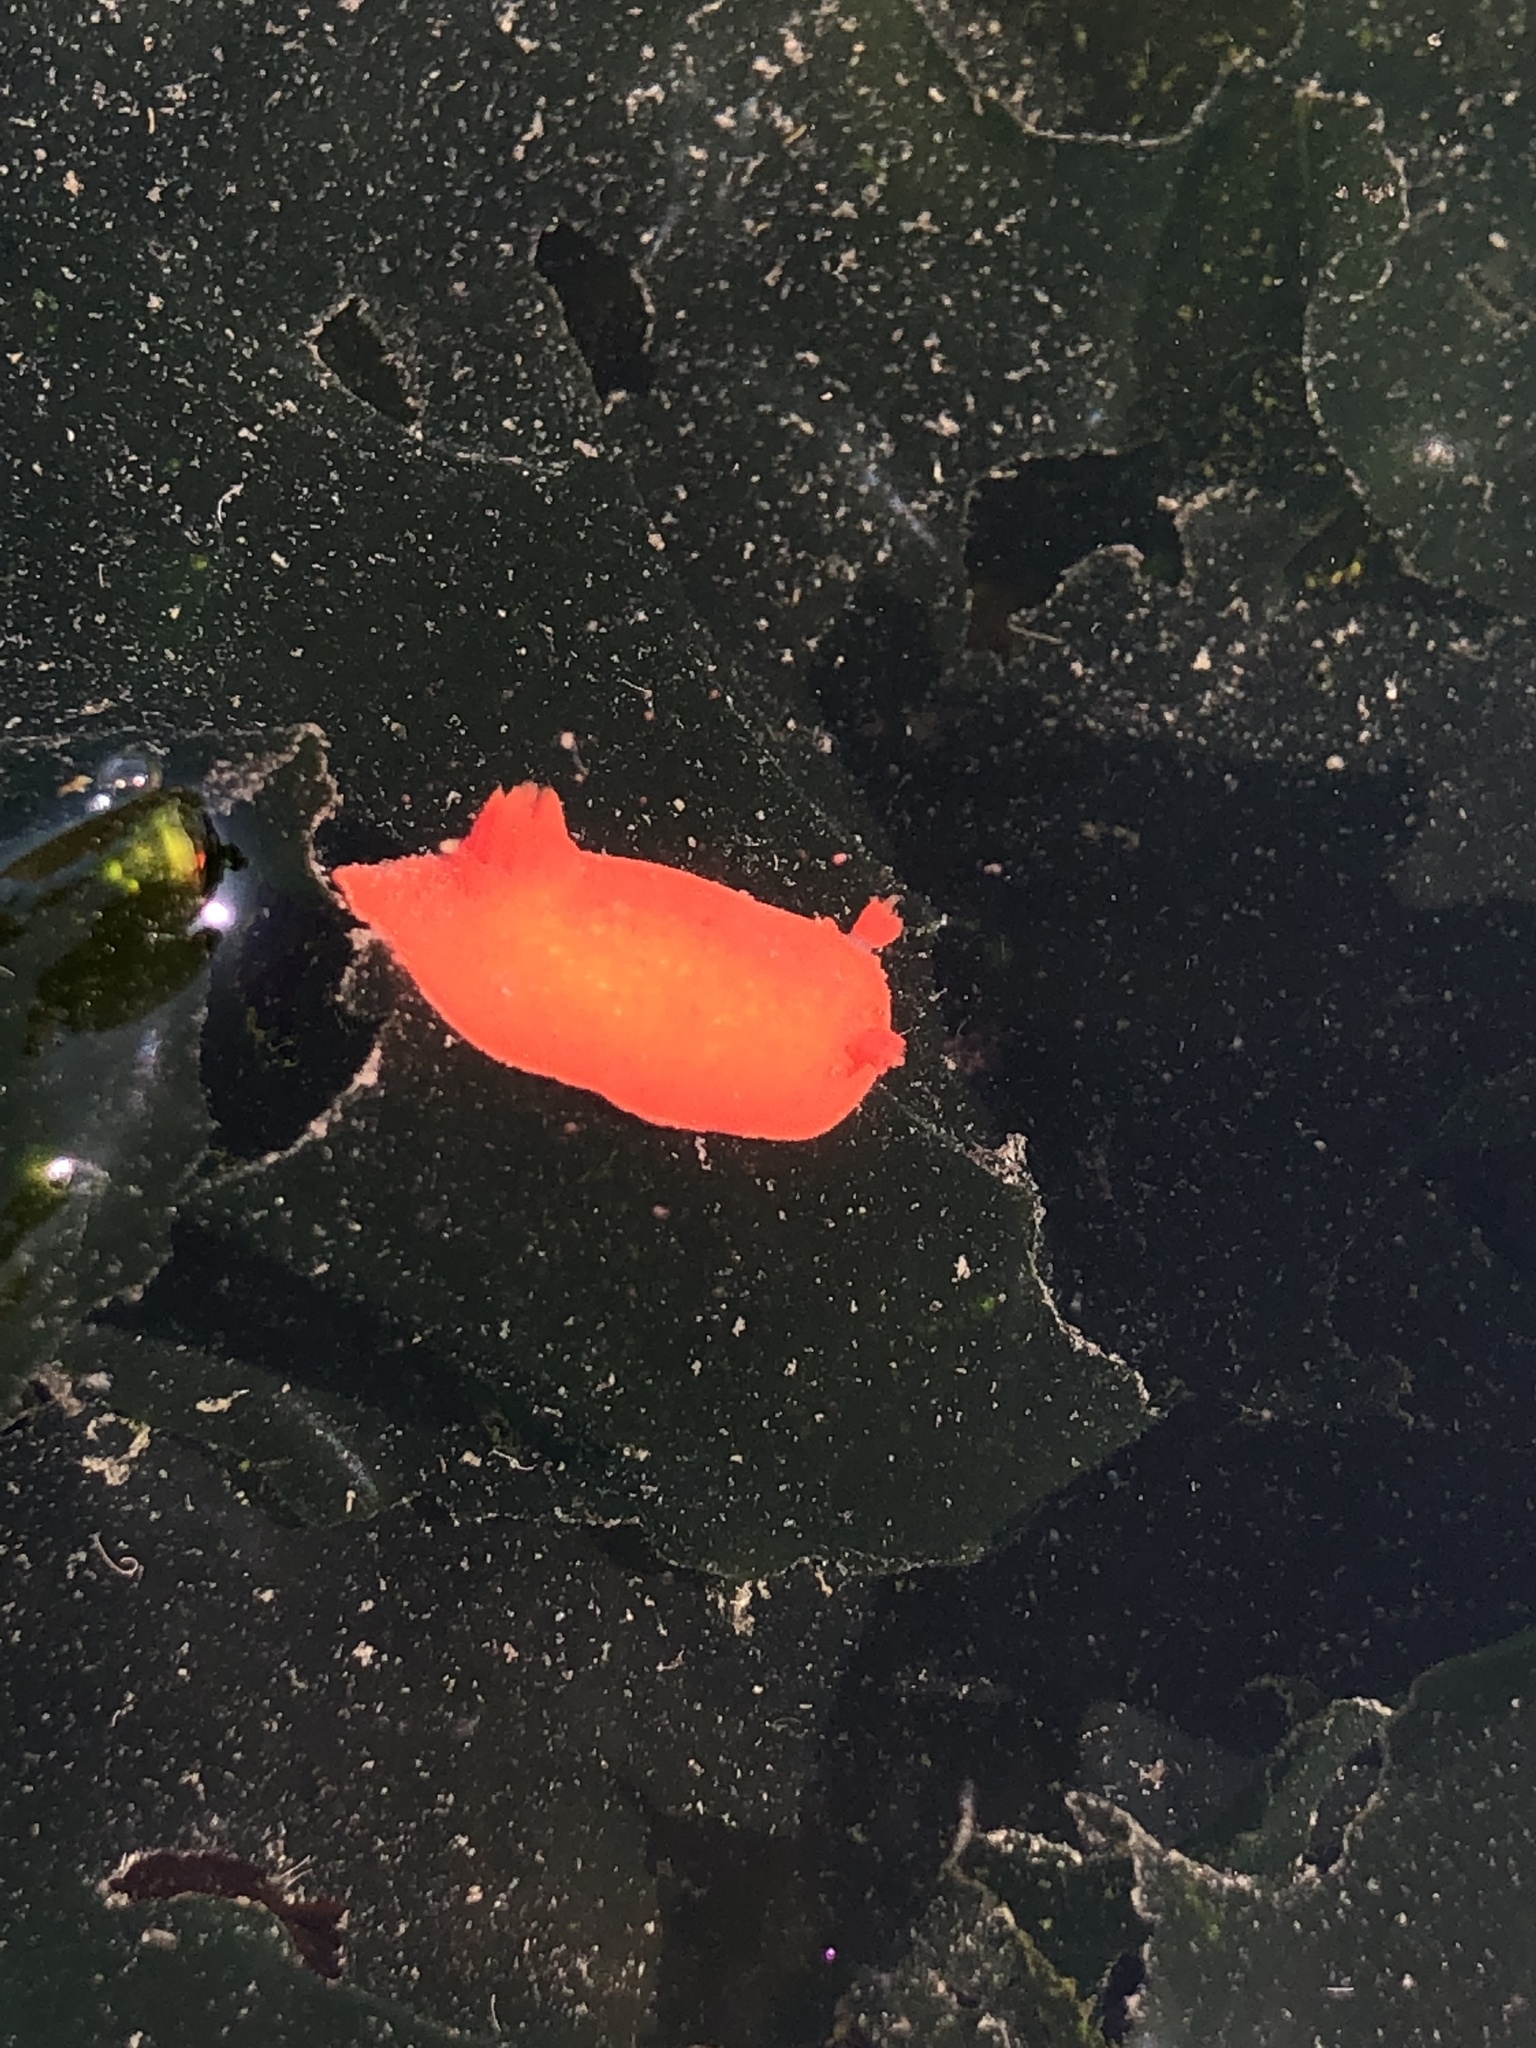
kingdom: Animalia
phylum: Mollusca
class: Gastropoda
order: Nudibranchia
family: Discodorididae
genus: Rostanga
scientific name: Rostanga pulchra
